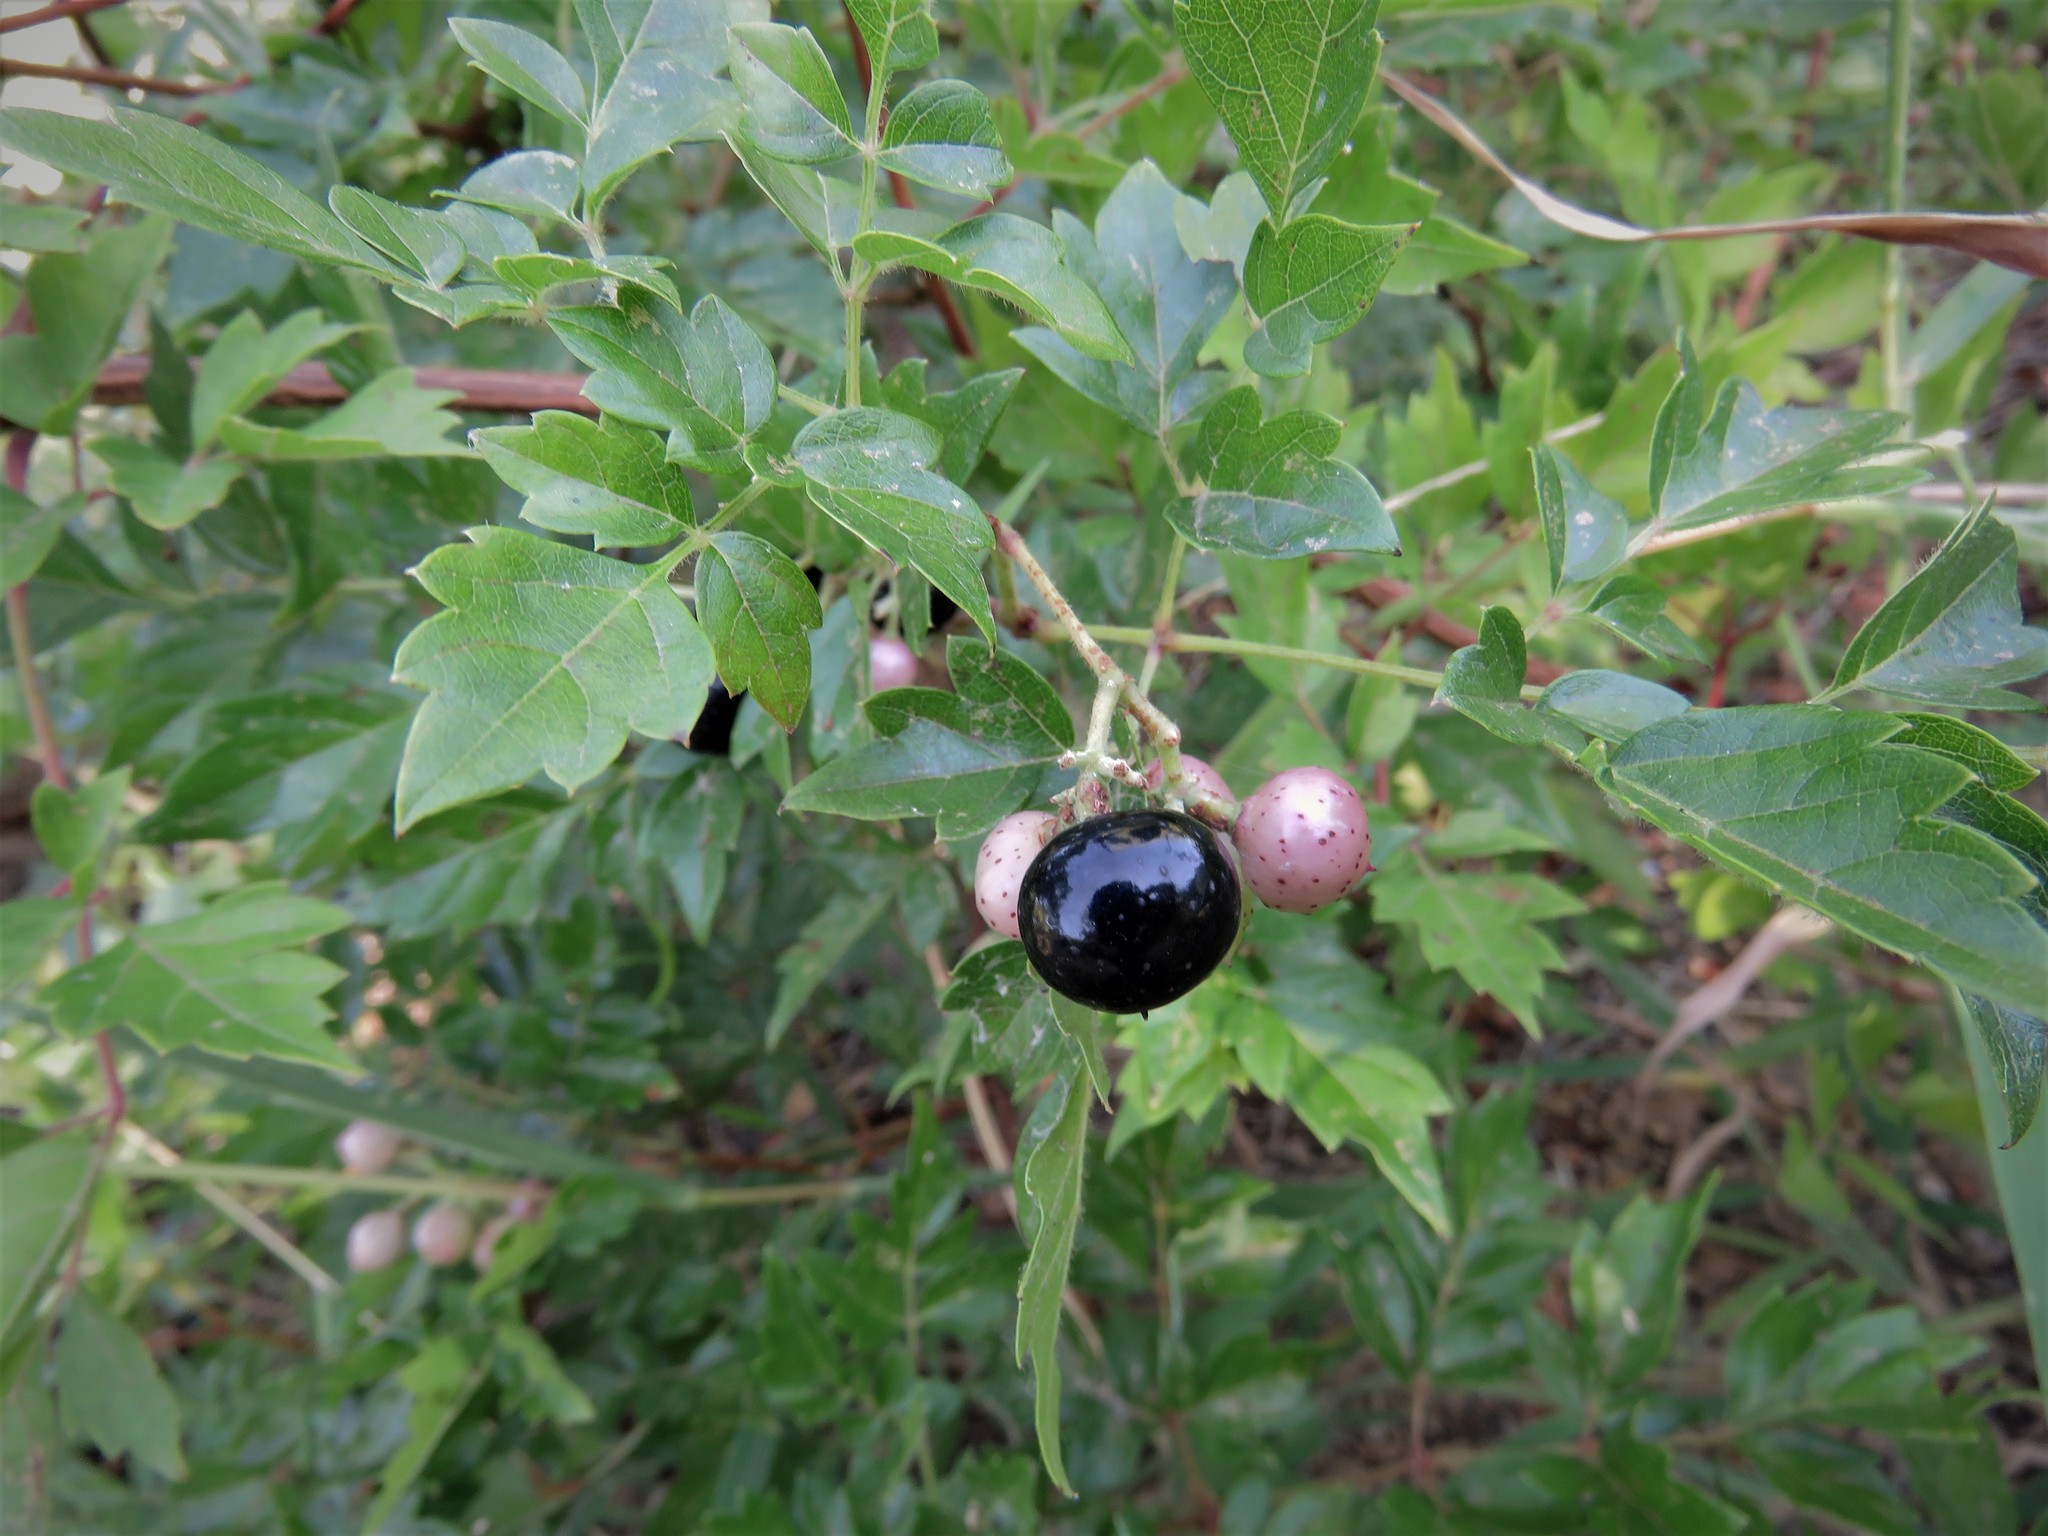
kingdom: Plantae
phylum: Tracheophyta
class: Magnoliopsida
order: Vitales
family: Vitaceae
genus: Nekemias
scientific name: Nekemias arborea
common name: Peppervine
